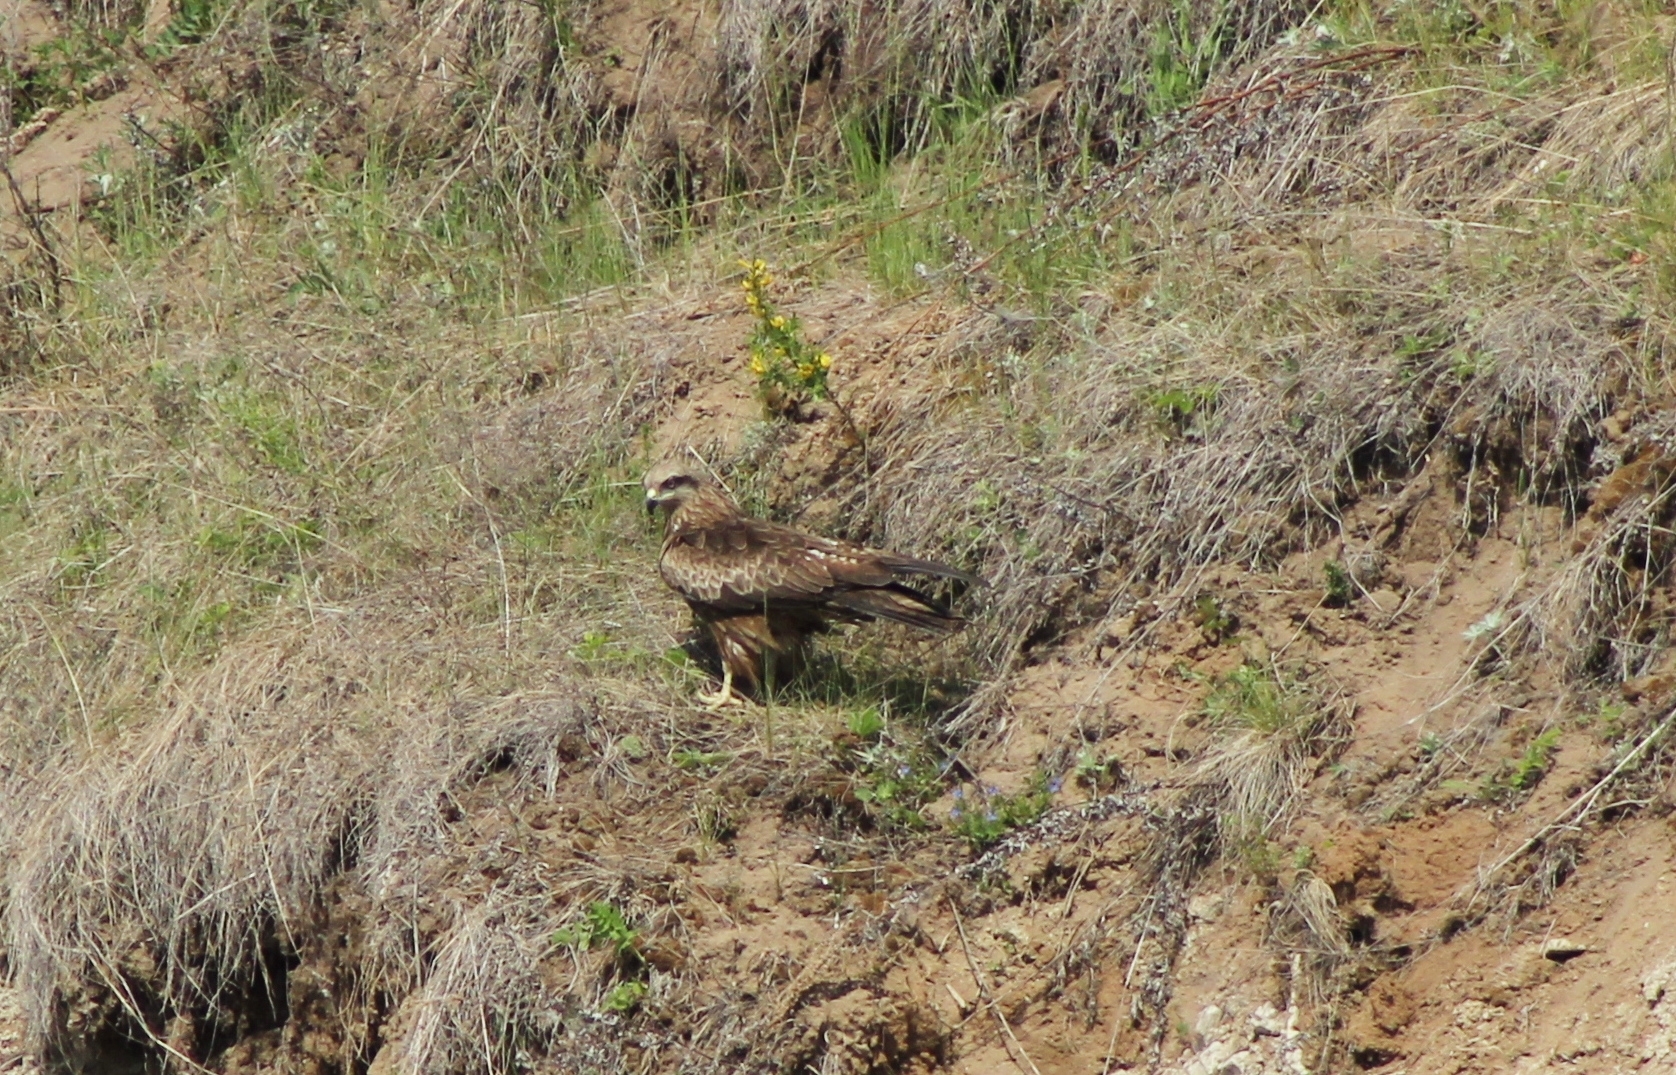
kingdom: Animalia
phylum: Chordata
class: Aves
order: Accipitriformes
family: Accipitridae
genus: Milvus
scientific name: Milvus migrans
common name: Black kite
